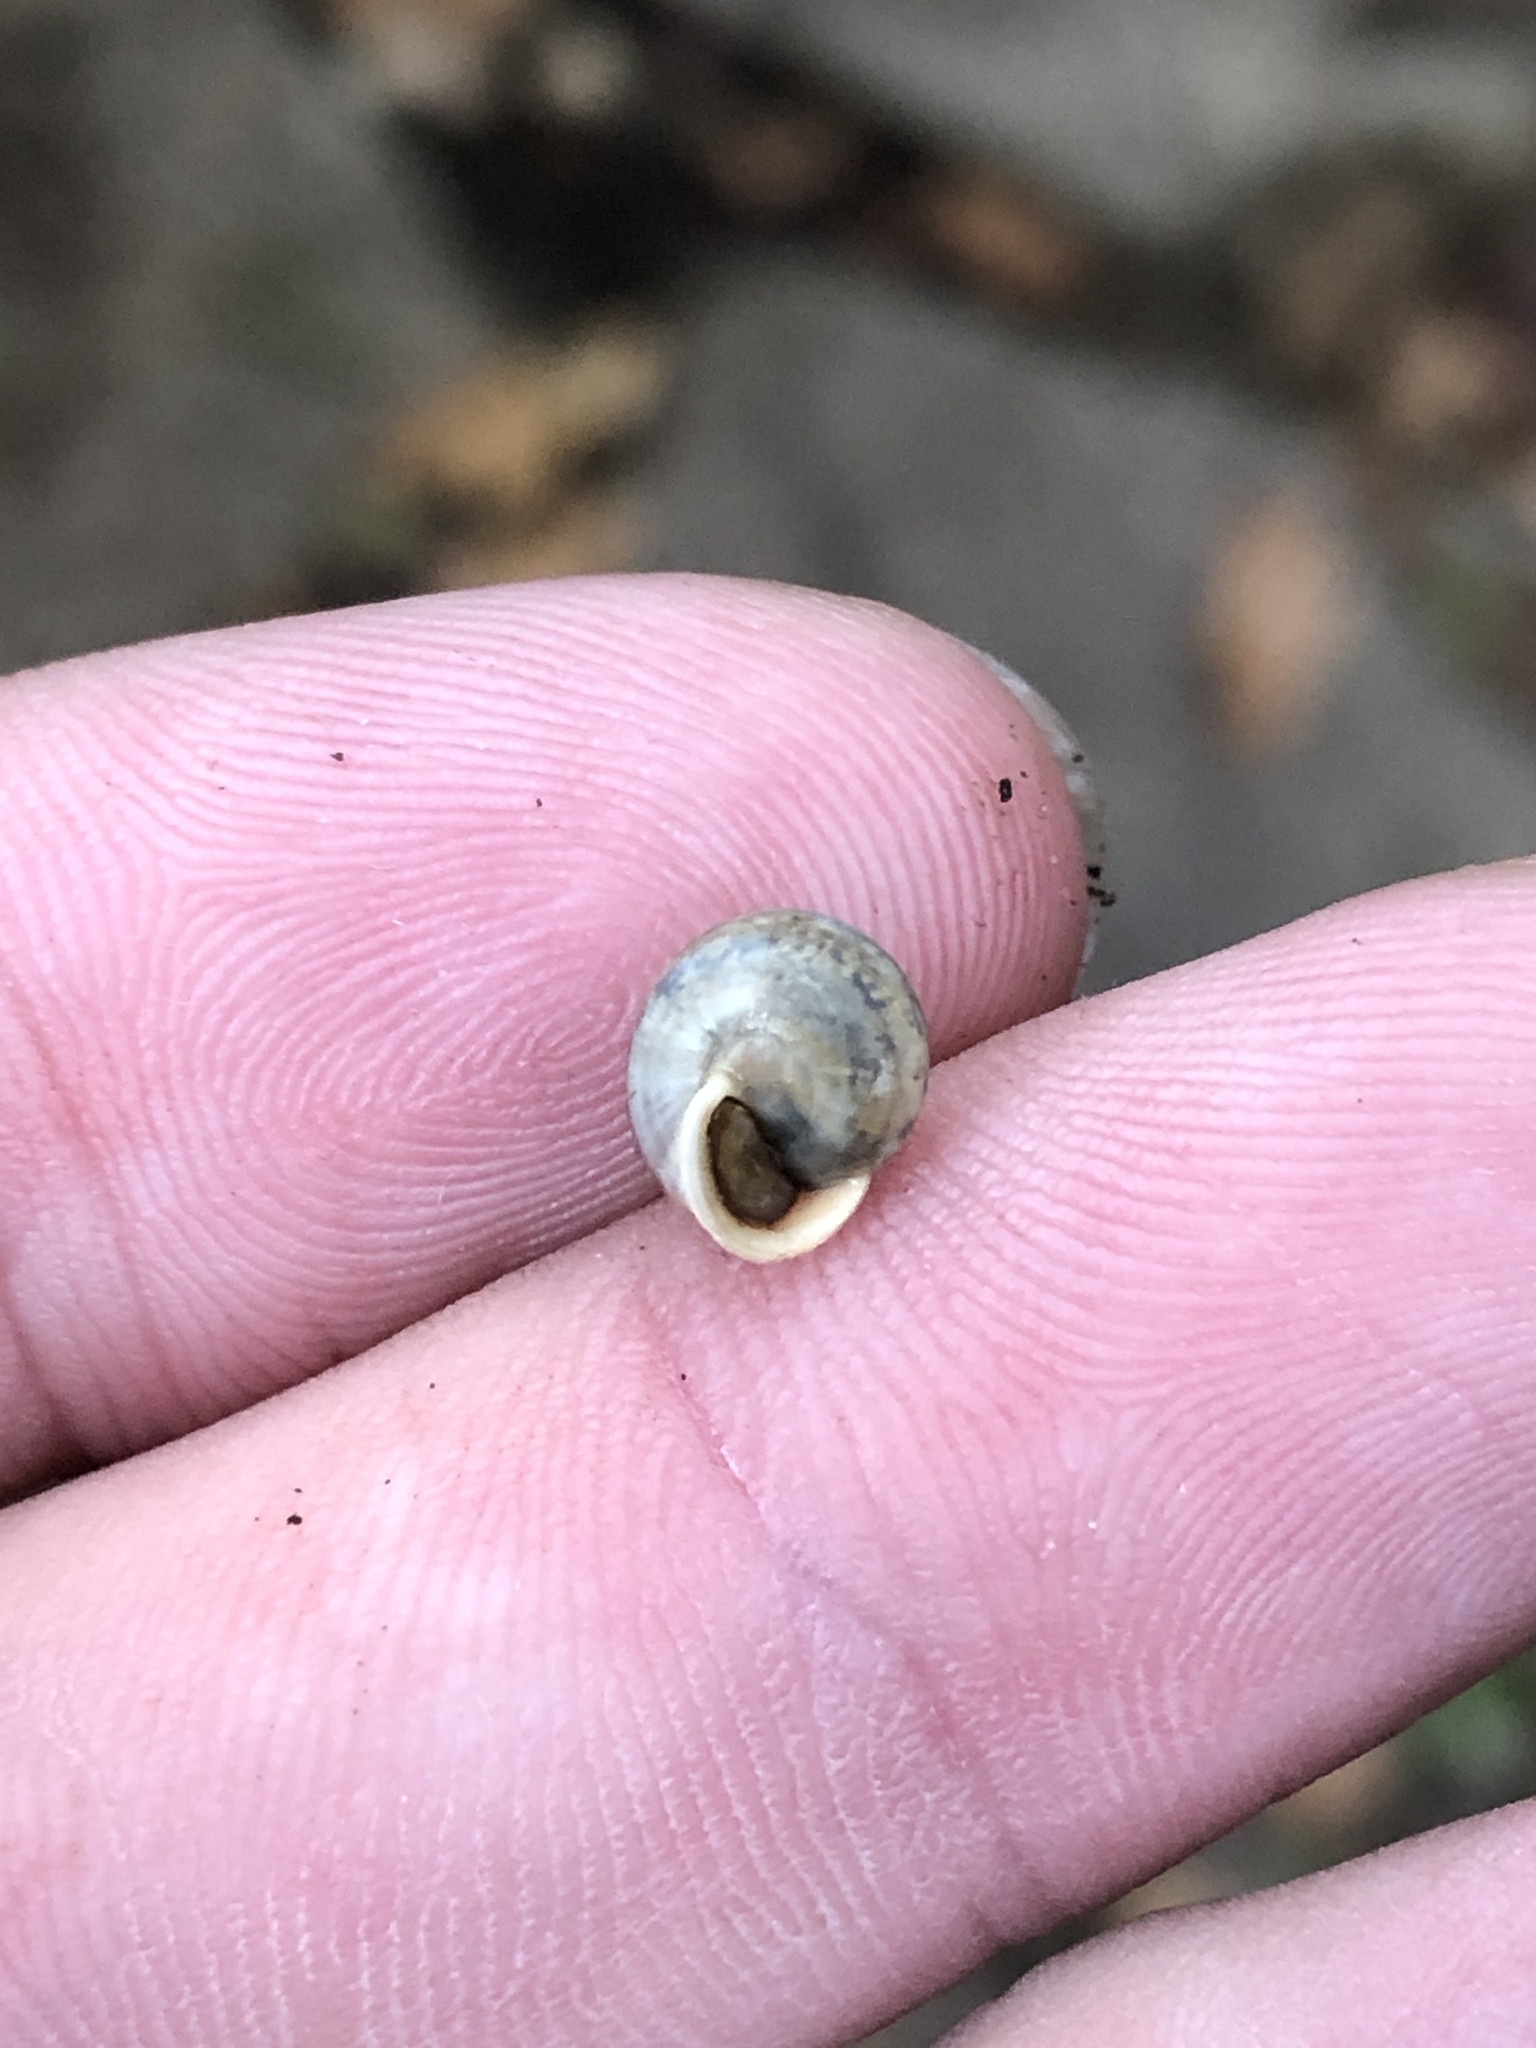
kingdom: Animalia
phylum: Mollusca
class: Gastropoda
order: Cycloneritida
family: Helicinidae
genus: Helicina
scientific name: Helicina orbiculata
